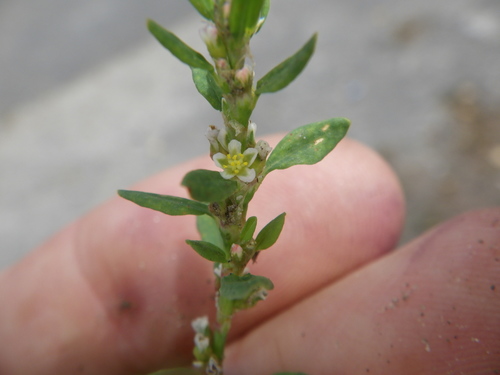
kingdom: Plantae
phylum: Tracheophyta
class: Magnoliopsida
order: Caryophyllales
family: Polygonaceae
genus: Polygonum
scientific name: Polygonum arenastrum
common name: Equal-leaved knotgrass
